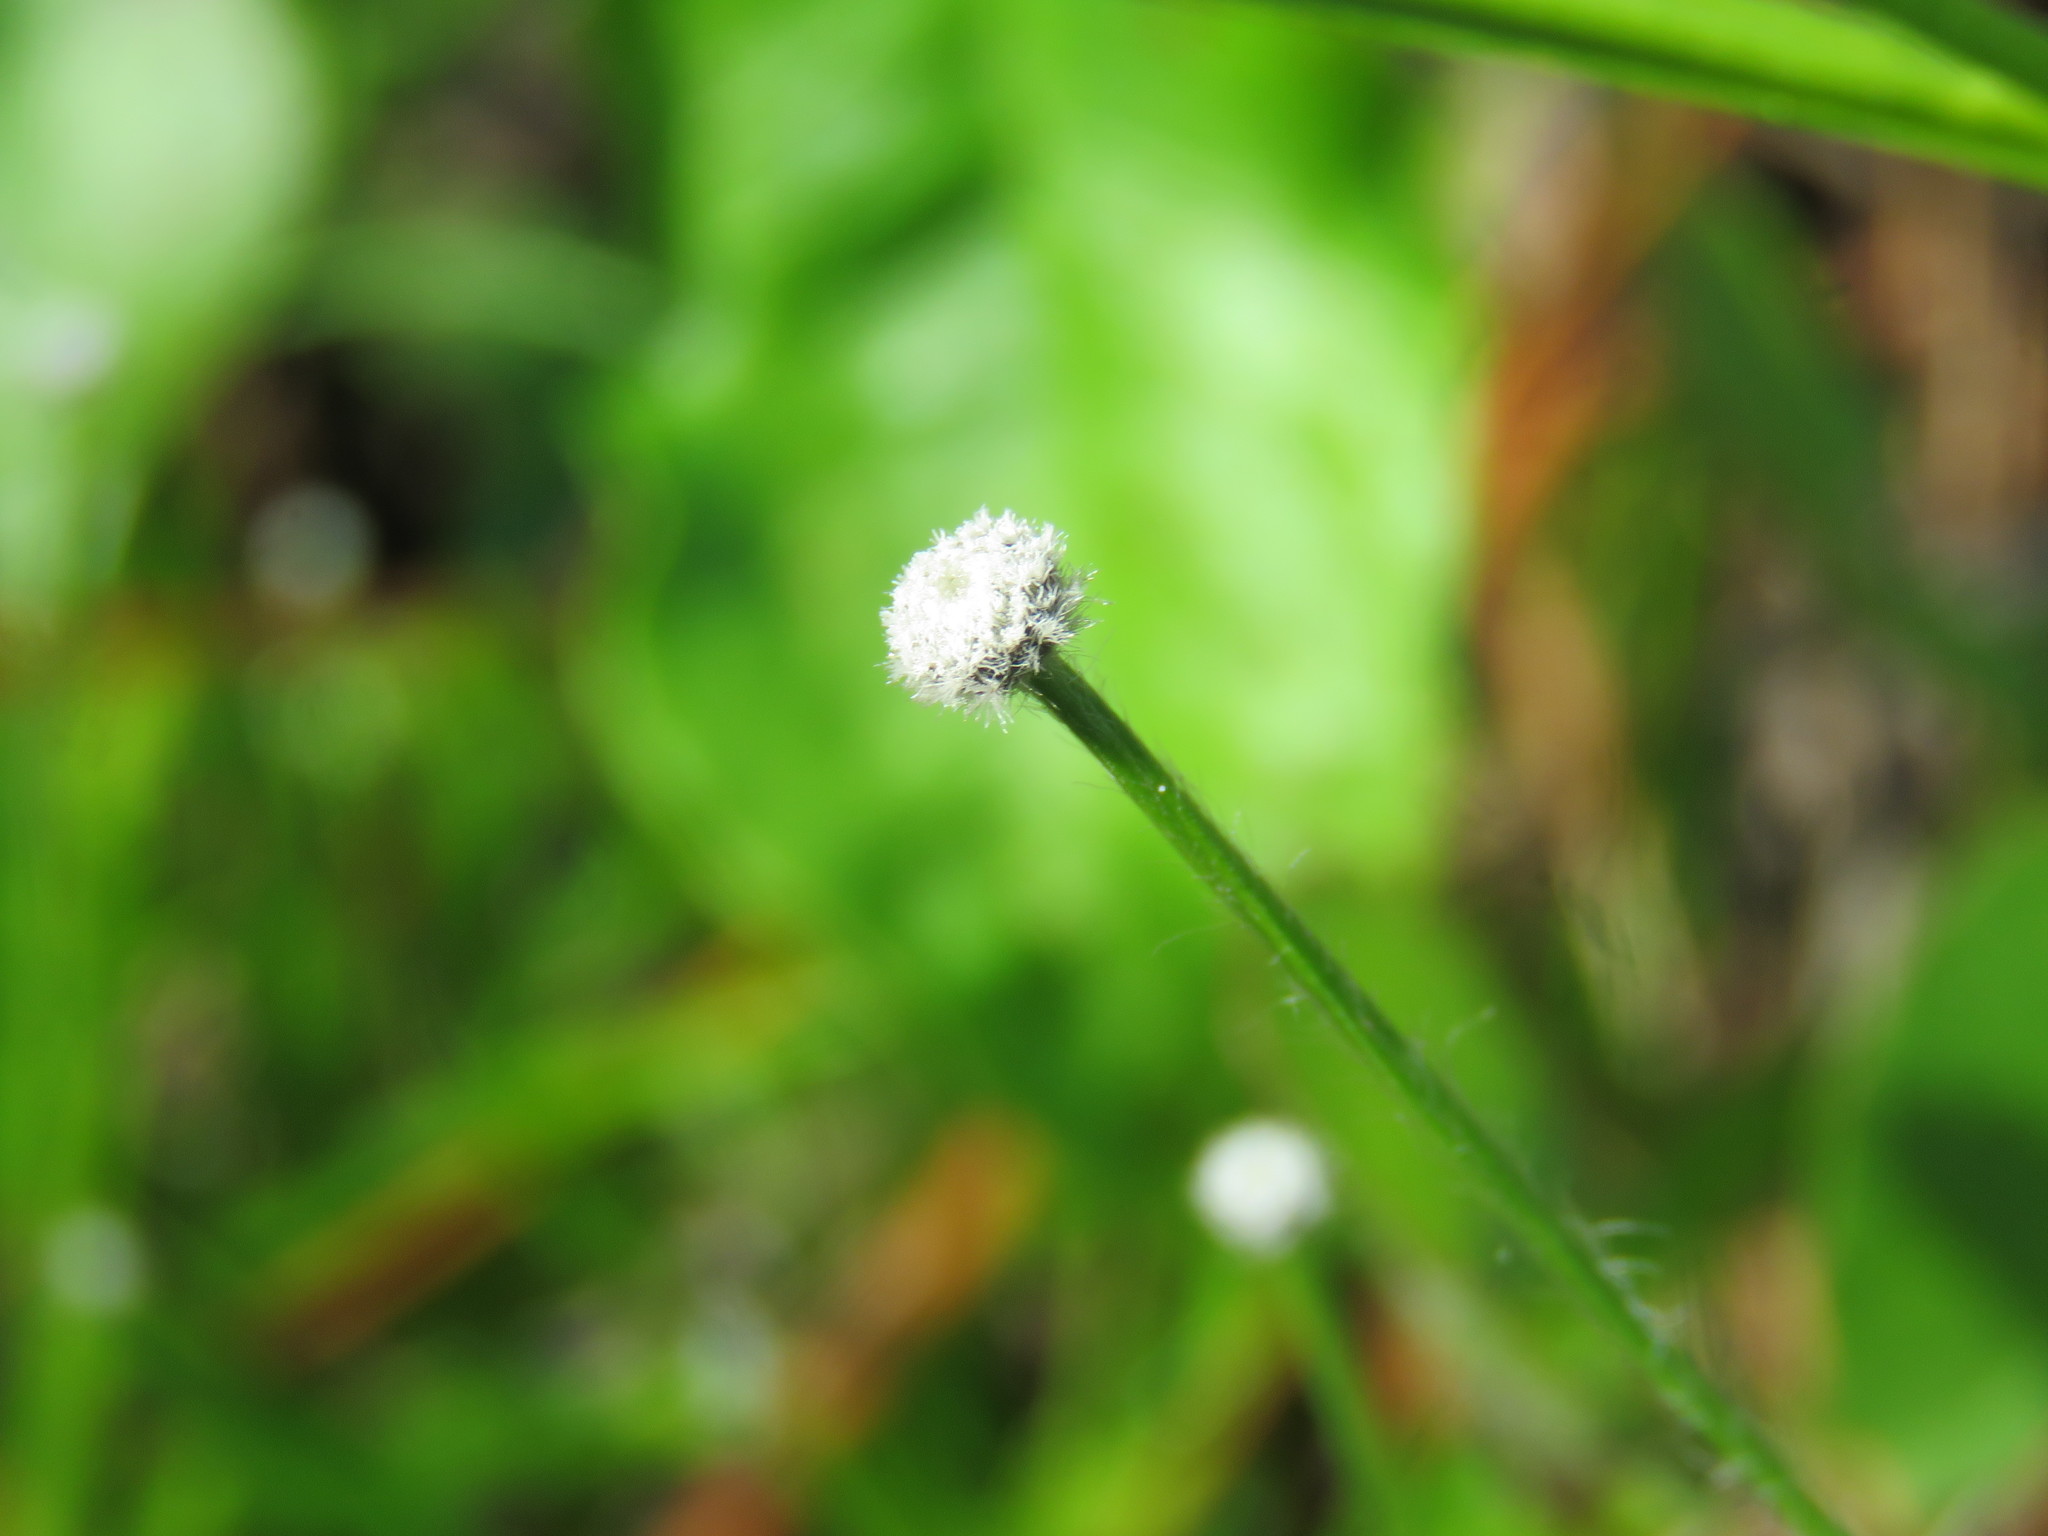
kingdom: Plantae
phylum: Tracheophyta
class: Liliopsida
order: Poales
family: Eriocaulaceae
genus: Paepalanthus
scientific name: Paepalanthus anceps
